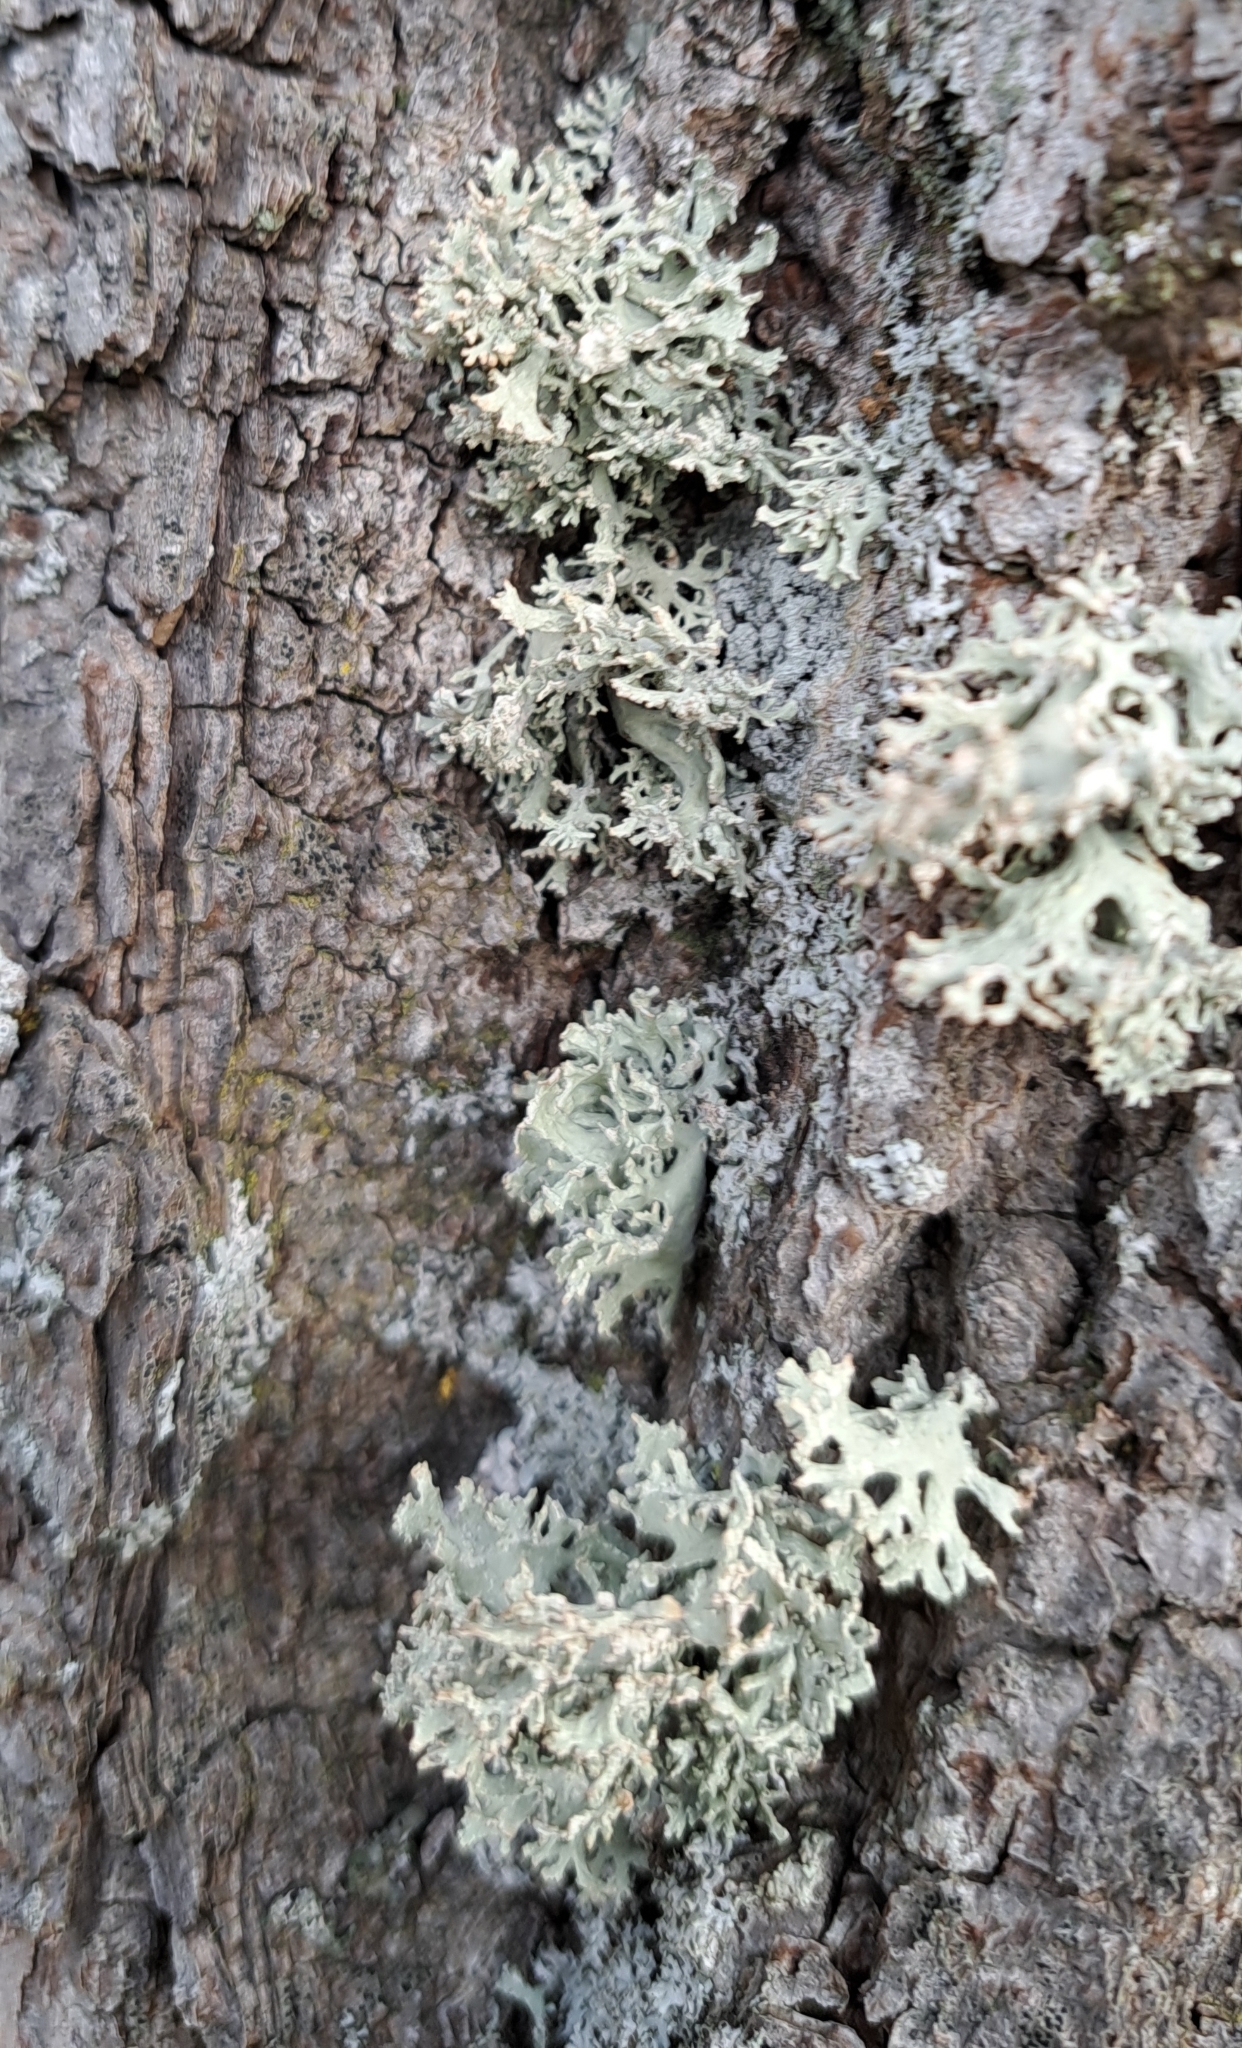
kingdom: Fungi
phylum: Ascomycota
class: Lecanoromycetes
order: Lecanorales
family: Parmeliaceae
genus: Evernia
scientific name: Evernia prunastri
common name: Oak moss
